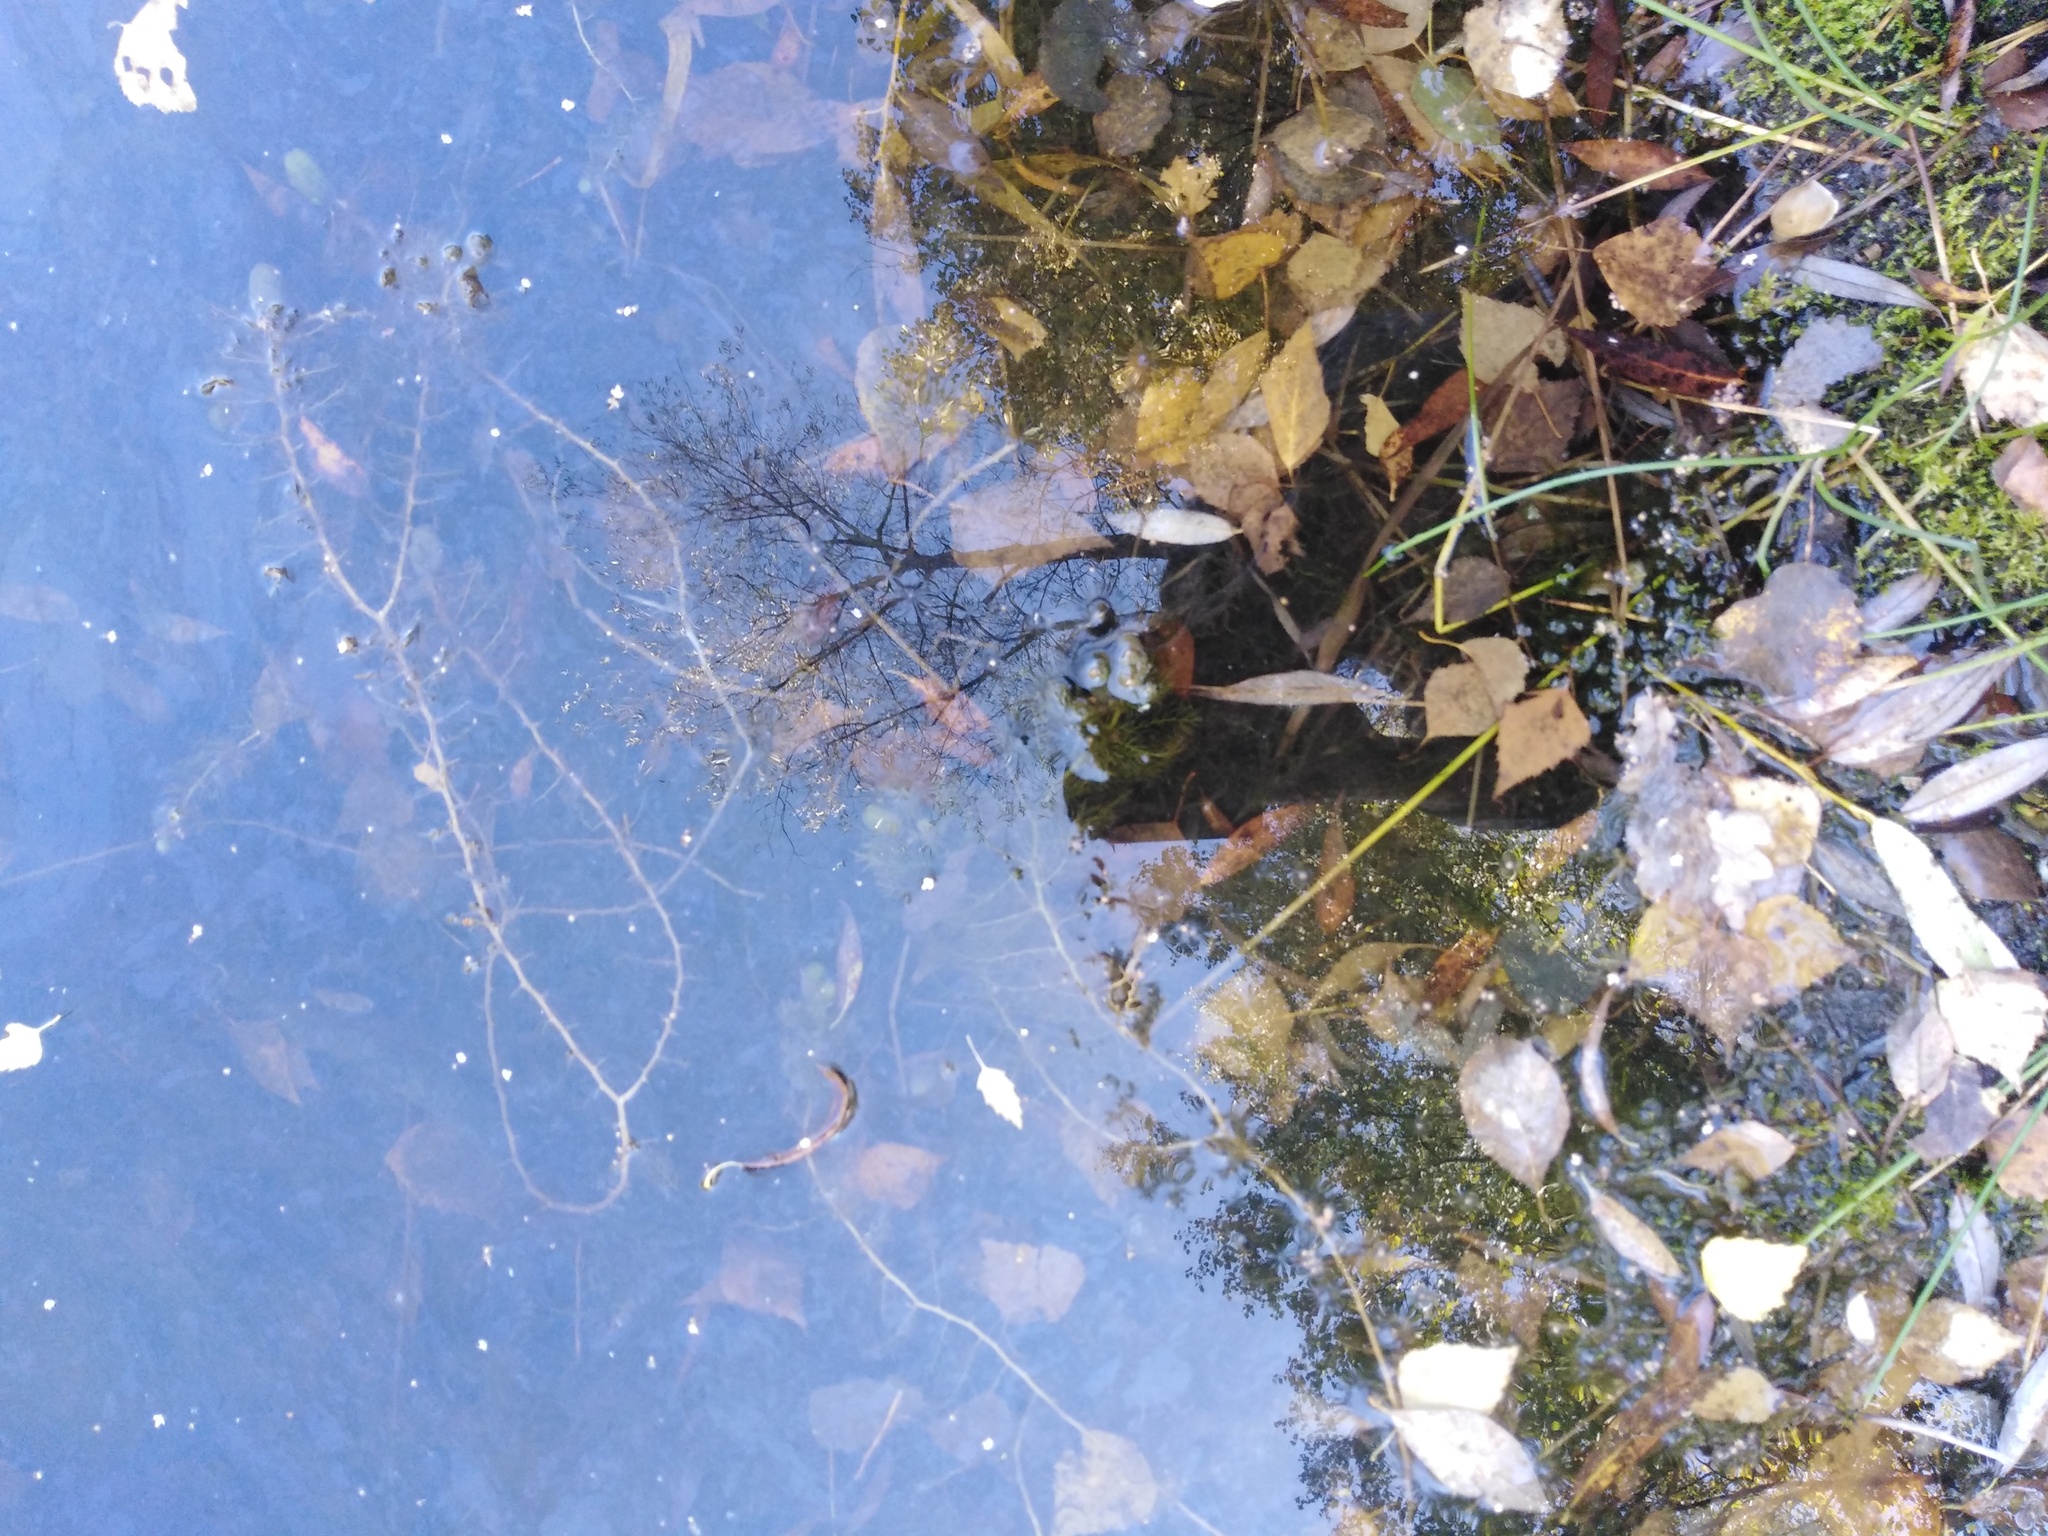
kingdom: Plantae
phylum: Tracheophyta
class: Magnoliopsida
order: Lamiales
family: Lentibulariaceae
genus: Utricularia
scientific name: Utricularia vulgaris
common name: Greater bladderwort
